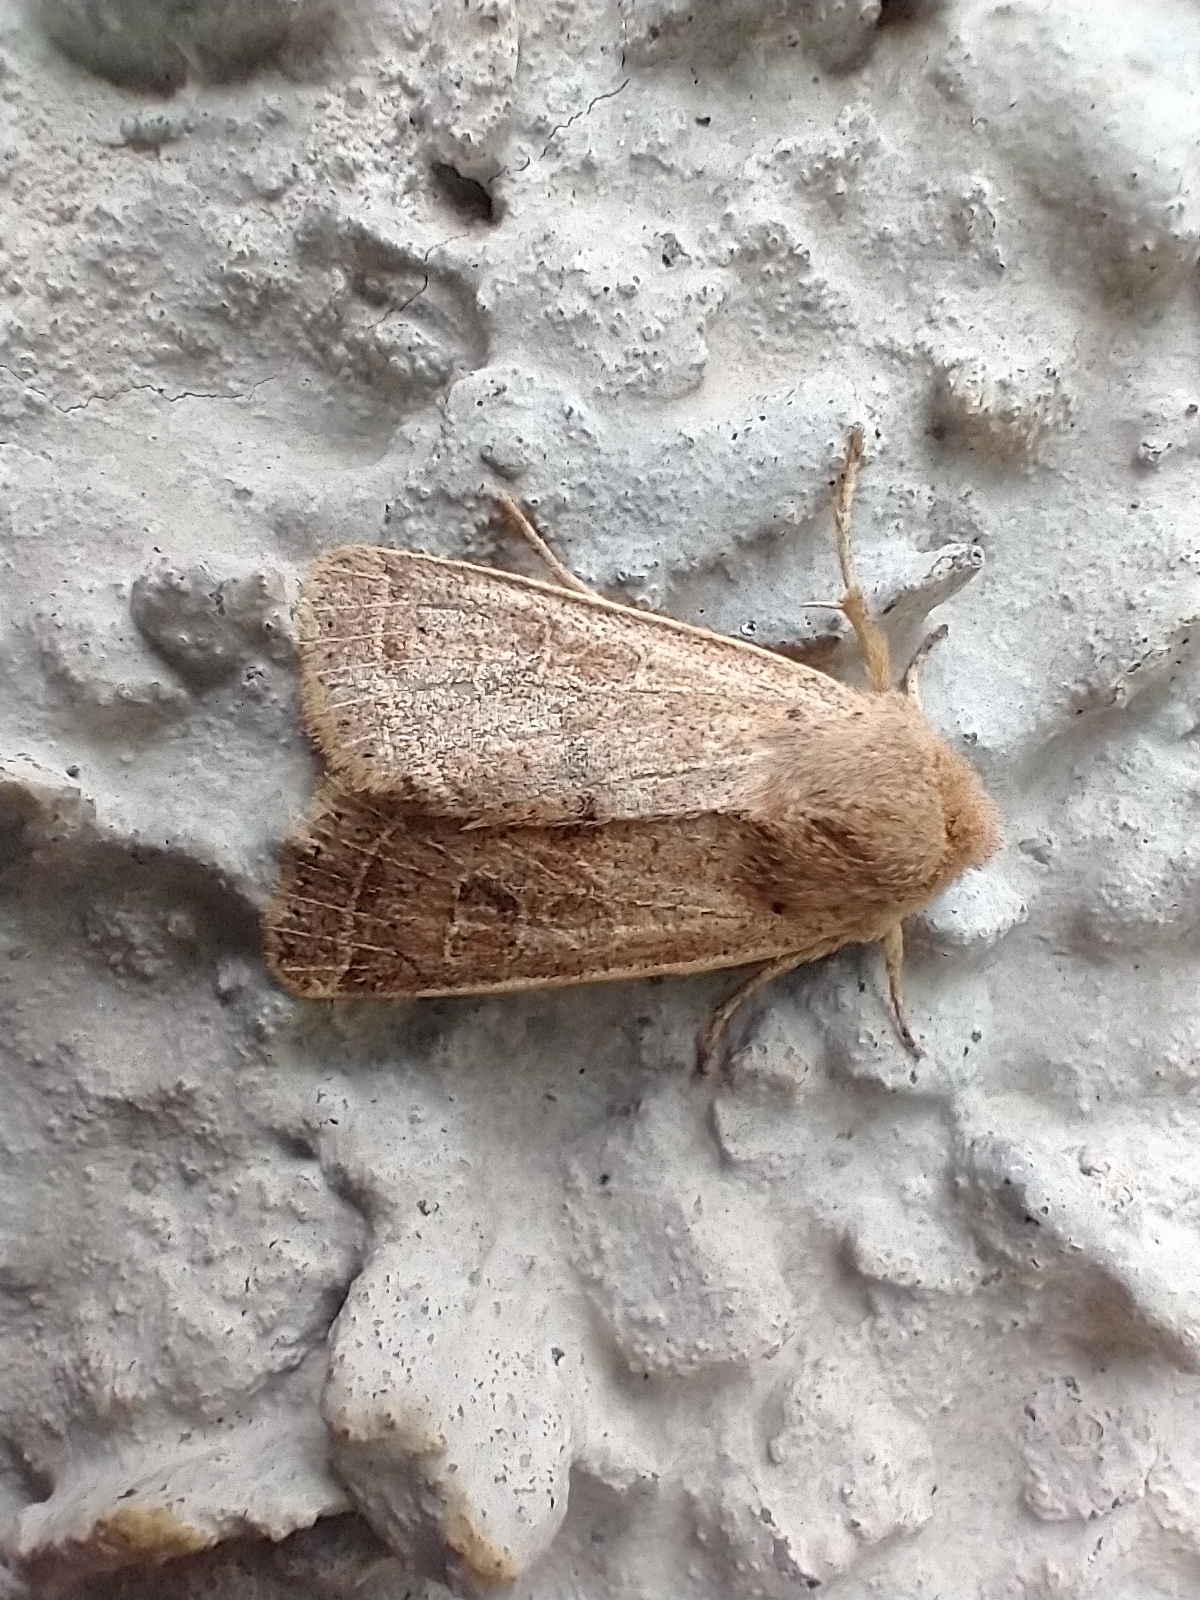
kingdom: Animalia
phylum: Arthropoda
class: Insecta
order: Lepidoptera
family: Noctuidae
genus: Orthosia
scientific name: Orthosia cerasi
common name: Common quaker
